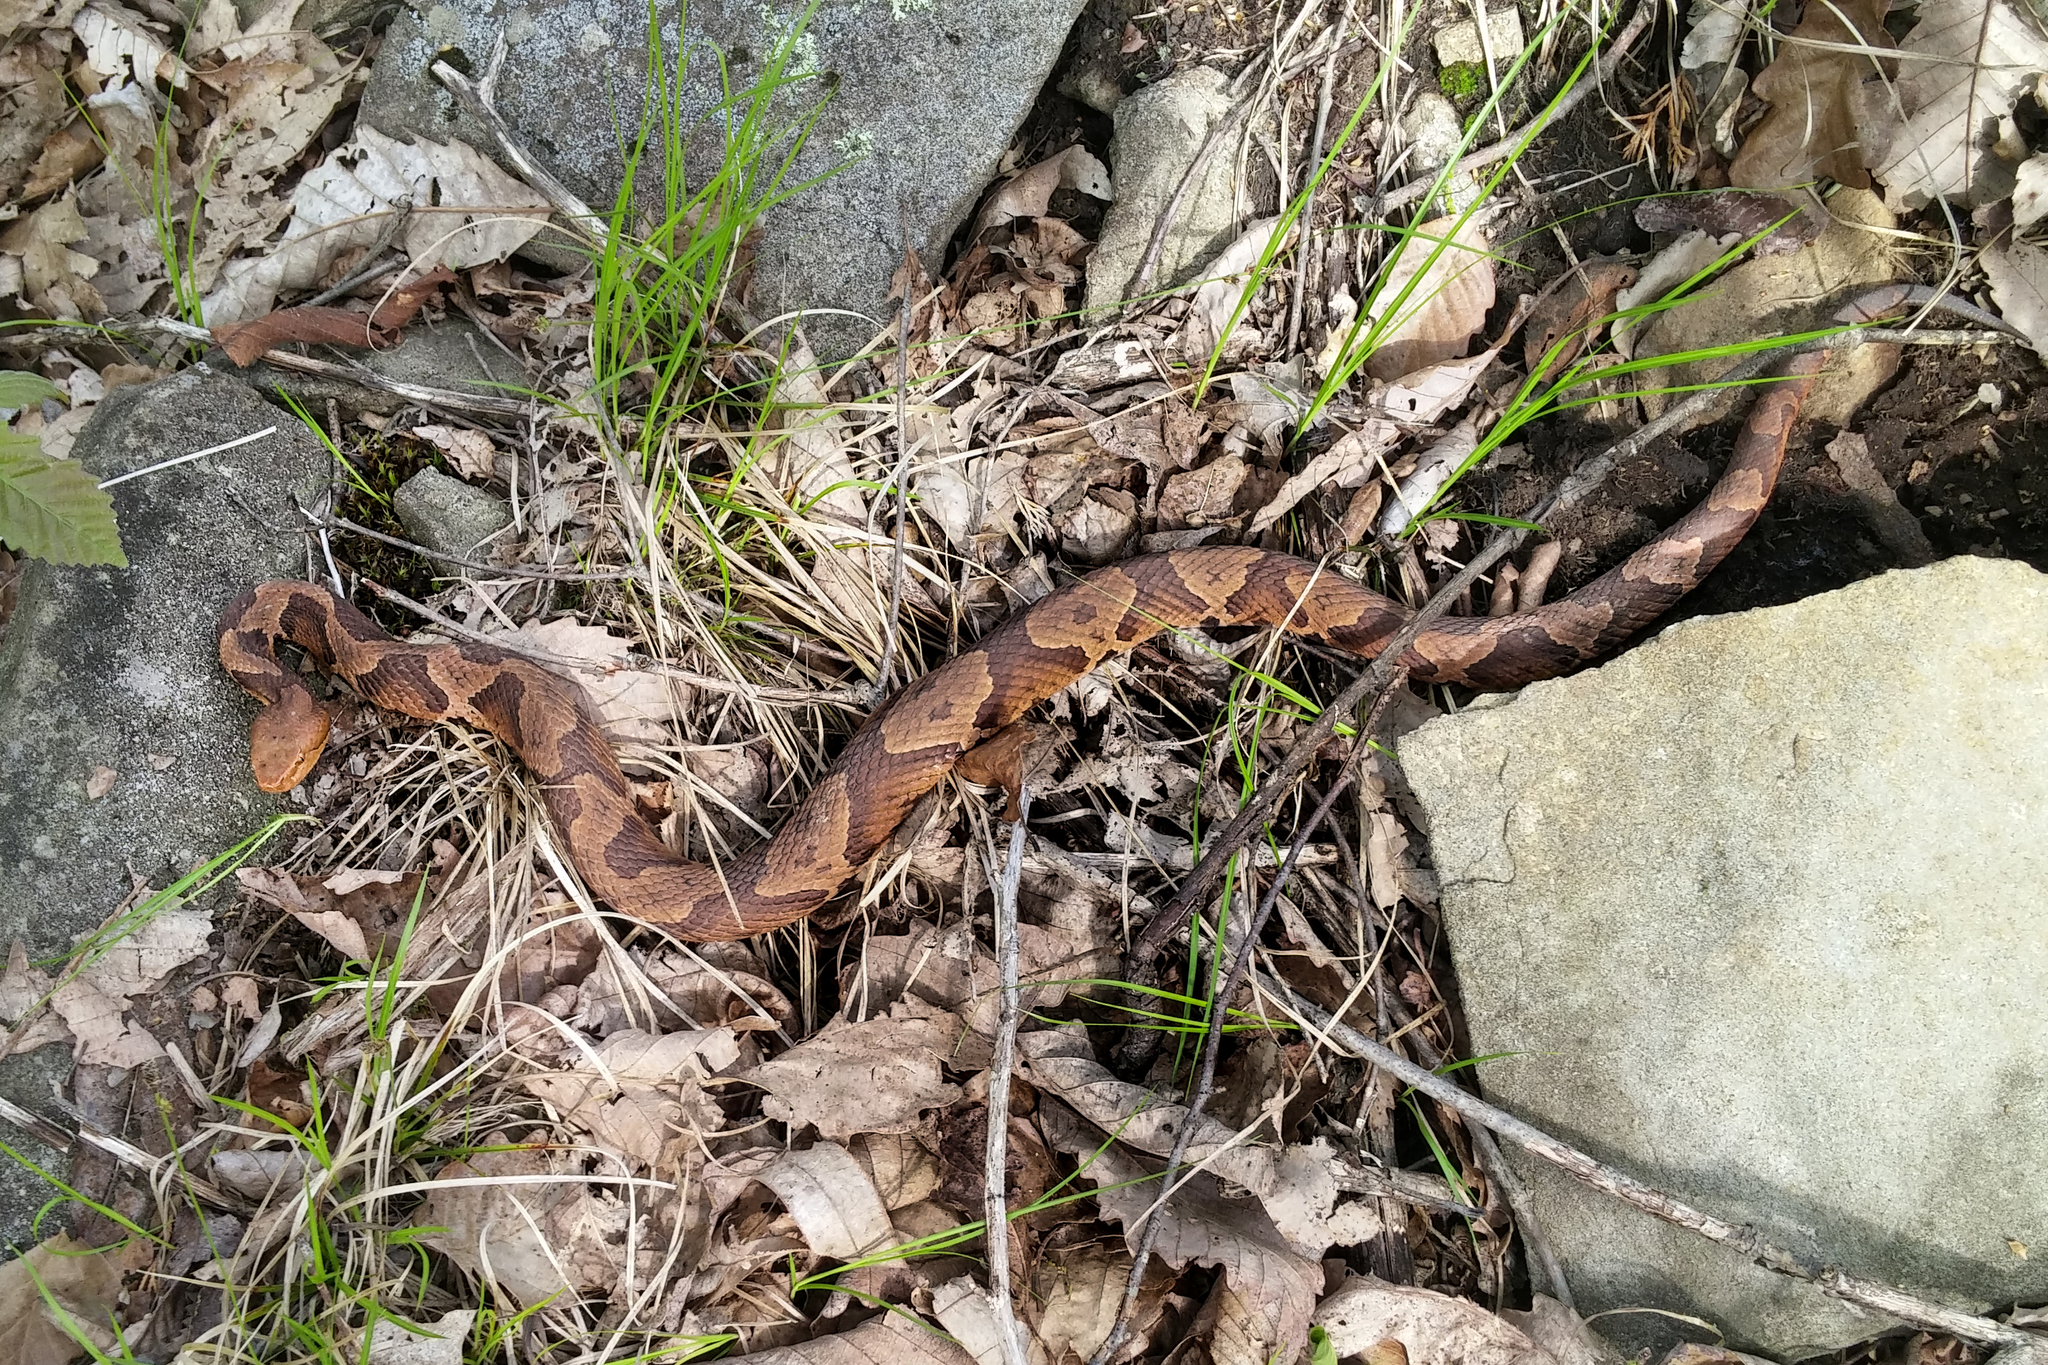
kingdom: Animalia
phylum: Chordata
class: Squamata
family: Viperidae
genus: Agkistrodon
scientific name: Agkistrodon contortrix
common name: Northern copperhead
